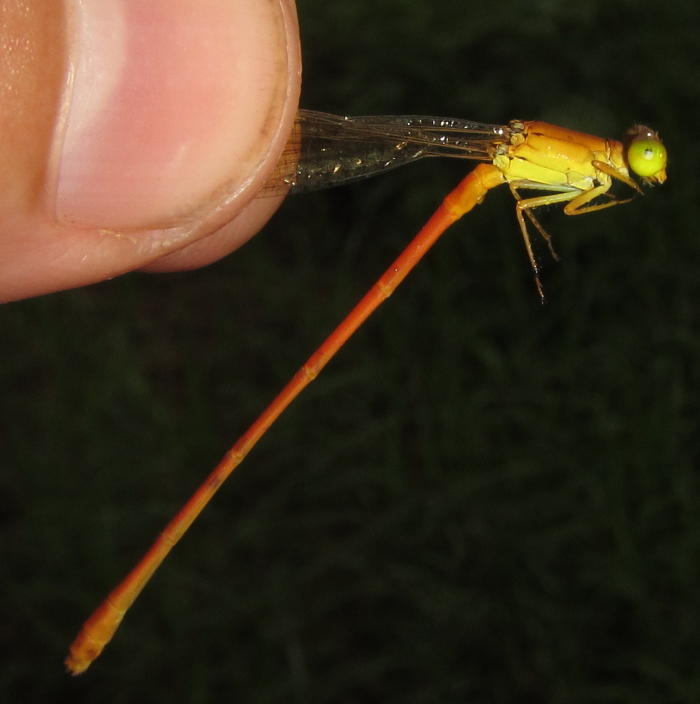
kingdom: Animalia
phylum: Arthropoda
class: Insecta
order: Odonata
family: Coenagrionidae
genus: Ceriagrion
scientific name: Ceriagrion glabrum
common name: Common pond damsel
